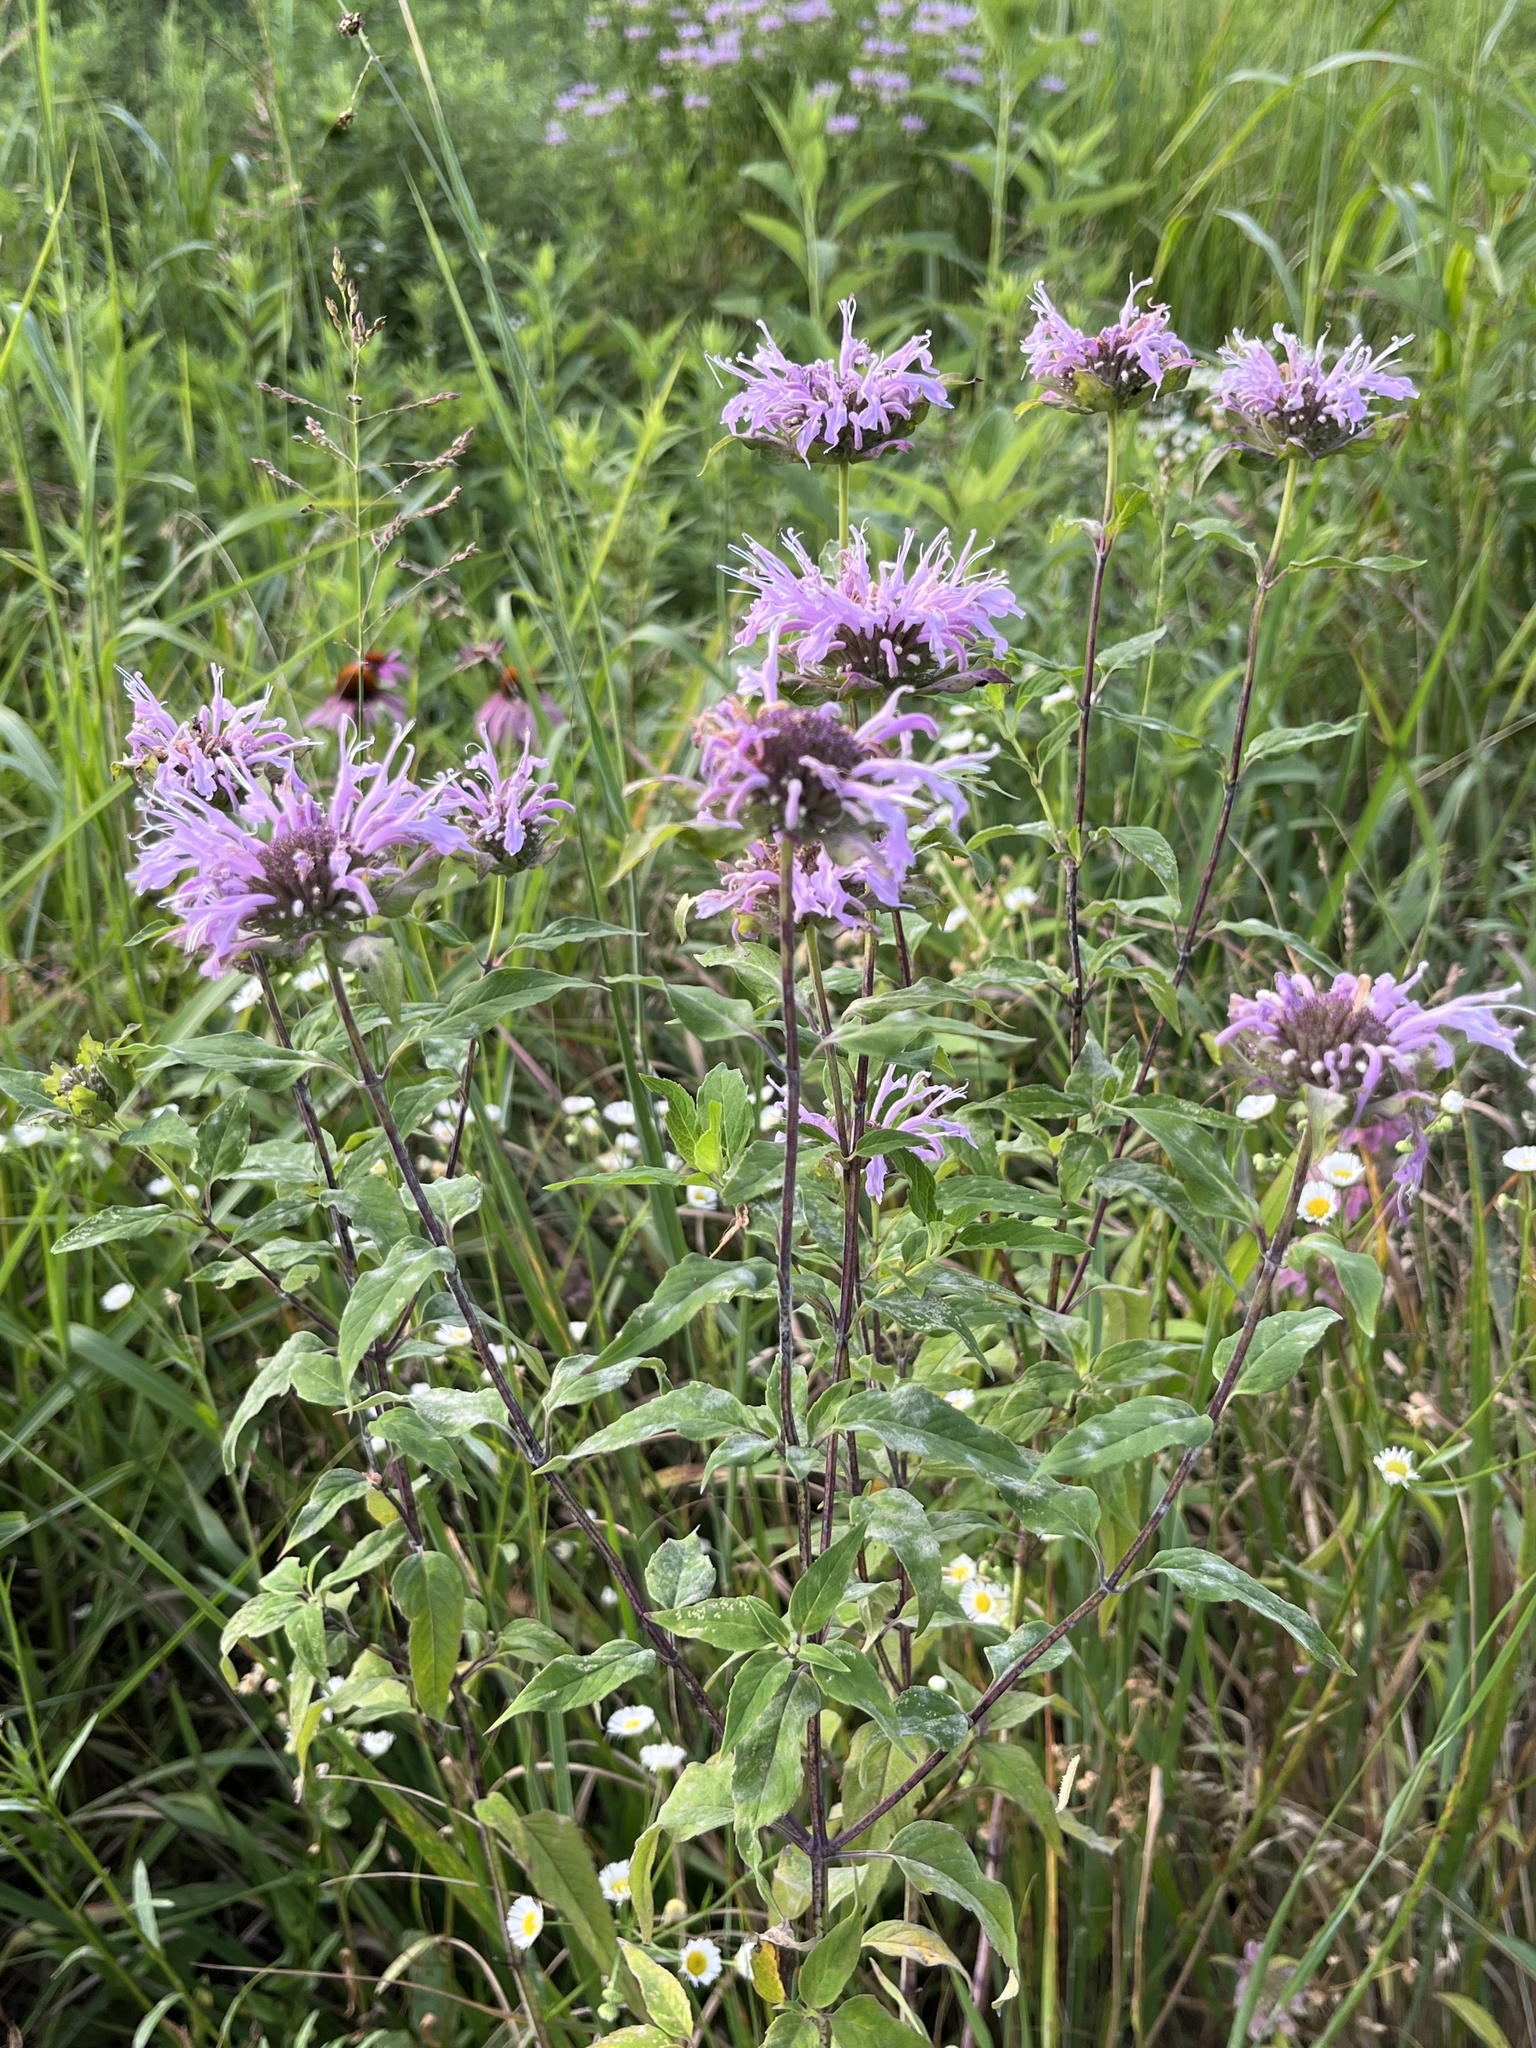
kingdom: Plantae
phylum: Tracheophyta
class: Magnoliopsida
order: Lamiales
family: Lamiaceae
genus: Monarda
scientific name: Monarda fistulosa
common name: Purple beebalm
